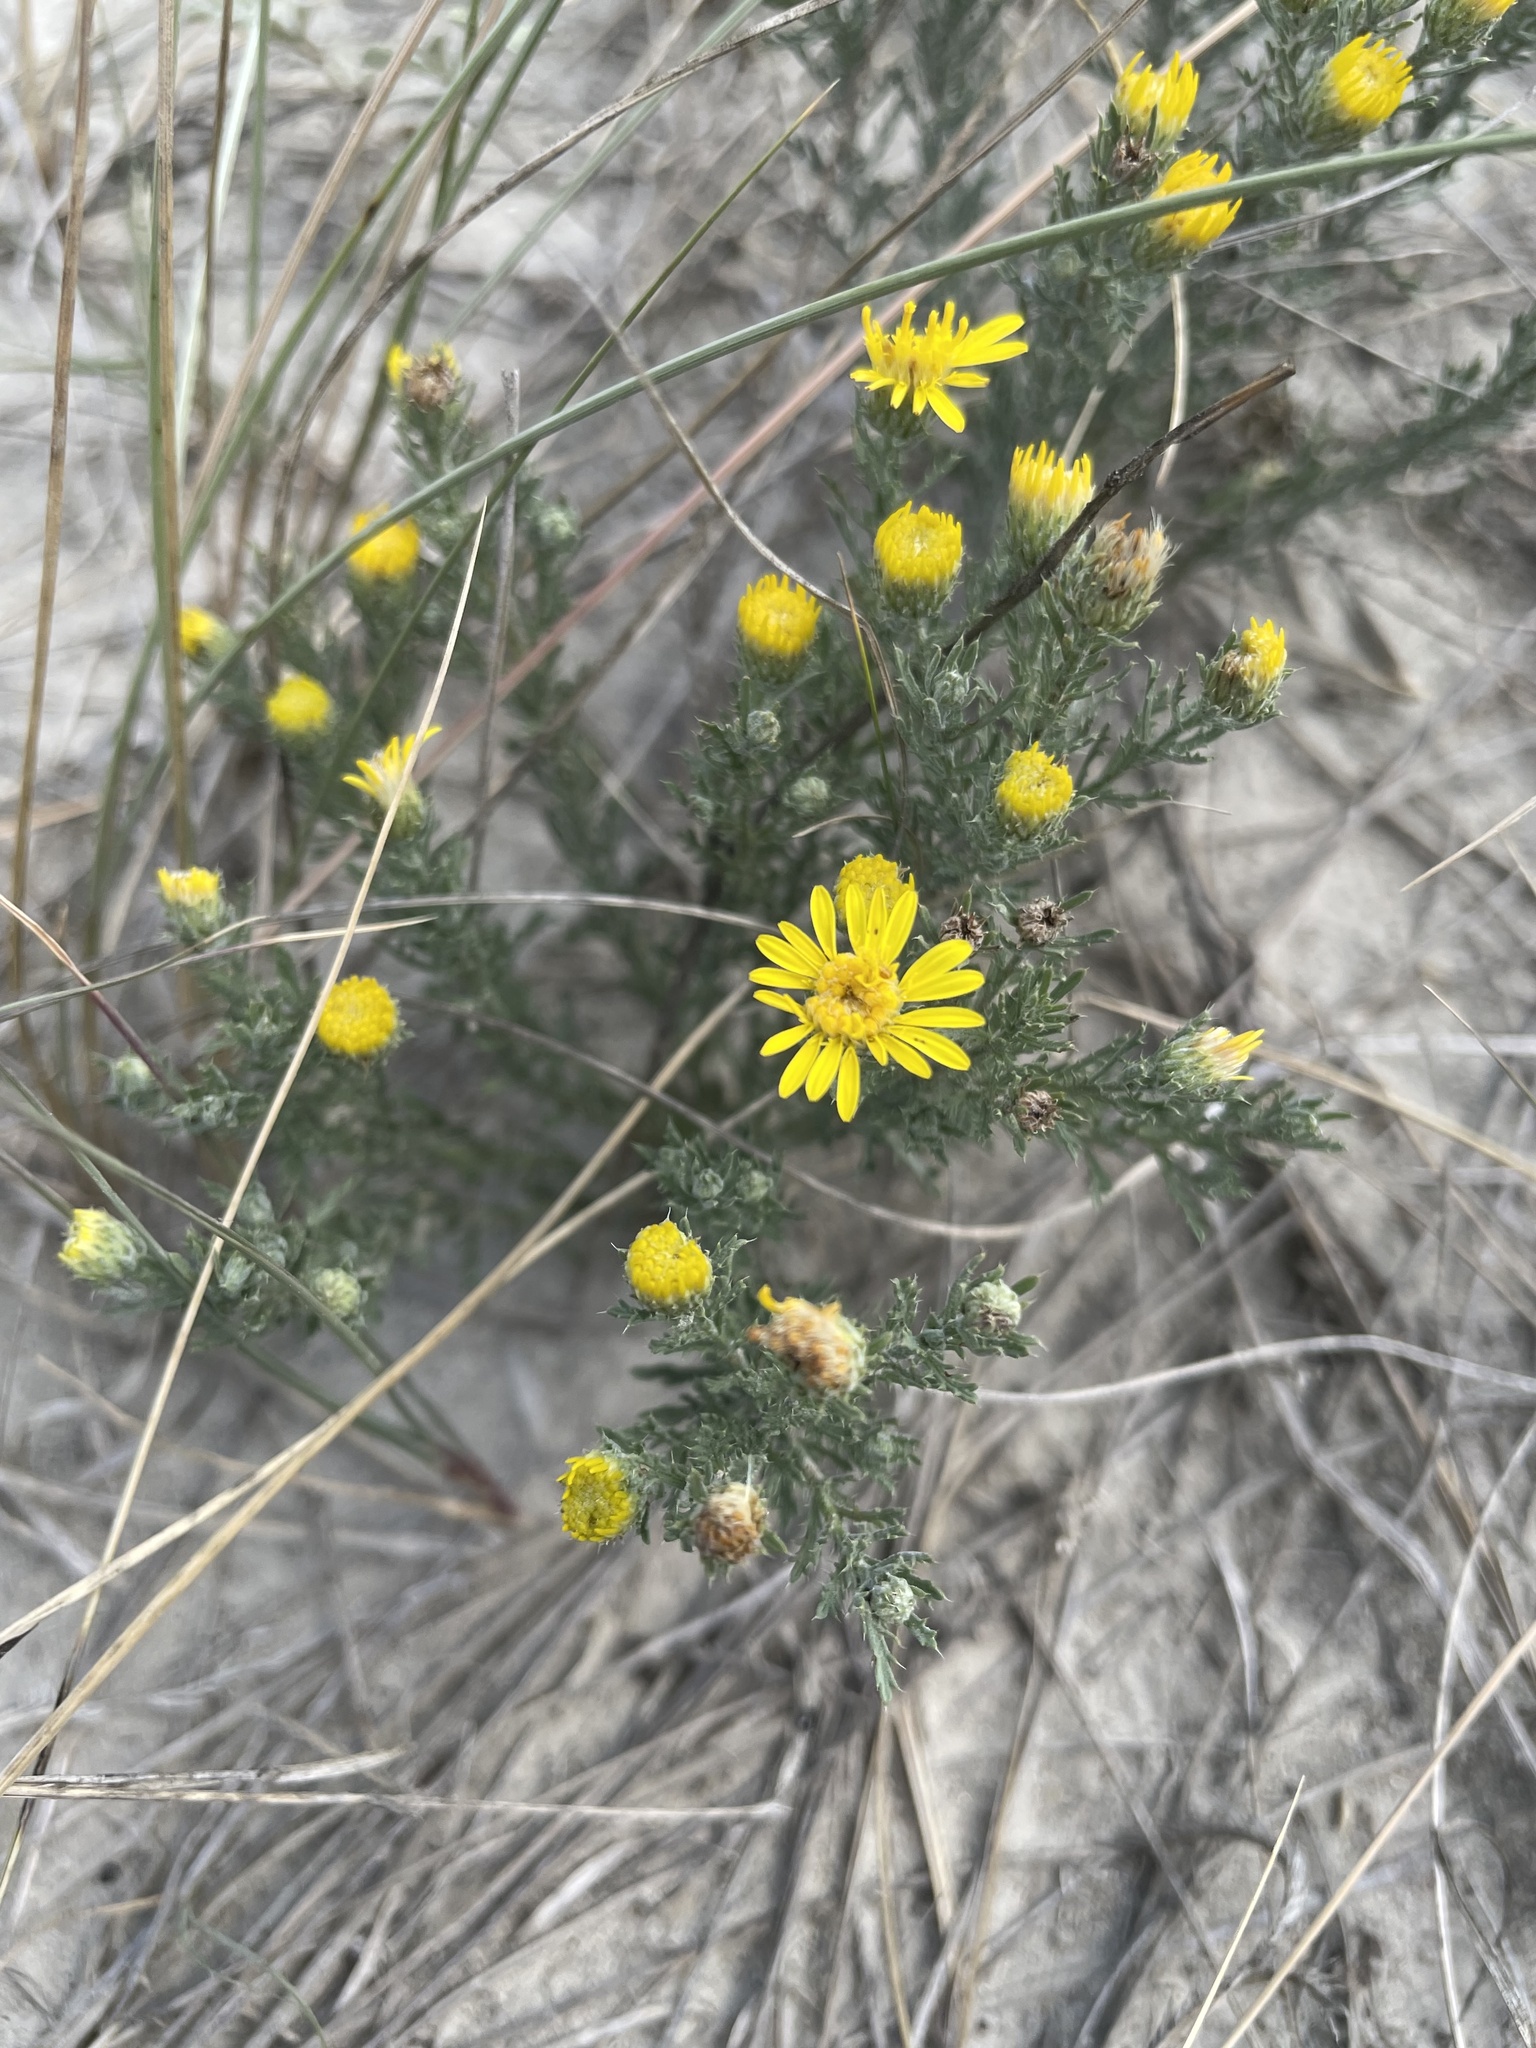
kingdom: Plantae
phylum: Tracheophyta
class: Magnoliopsida
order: Asterales
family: Asteraceae
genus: Xanthisma
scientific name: Xanthisma spinulosum
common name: Spiny goldenweed
